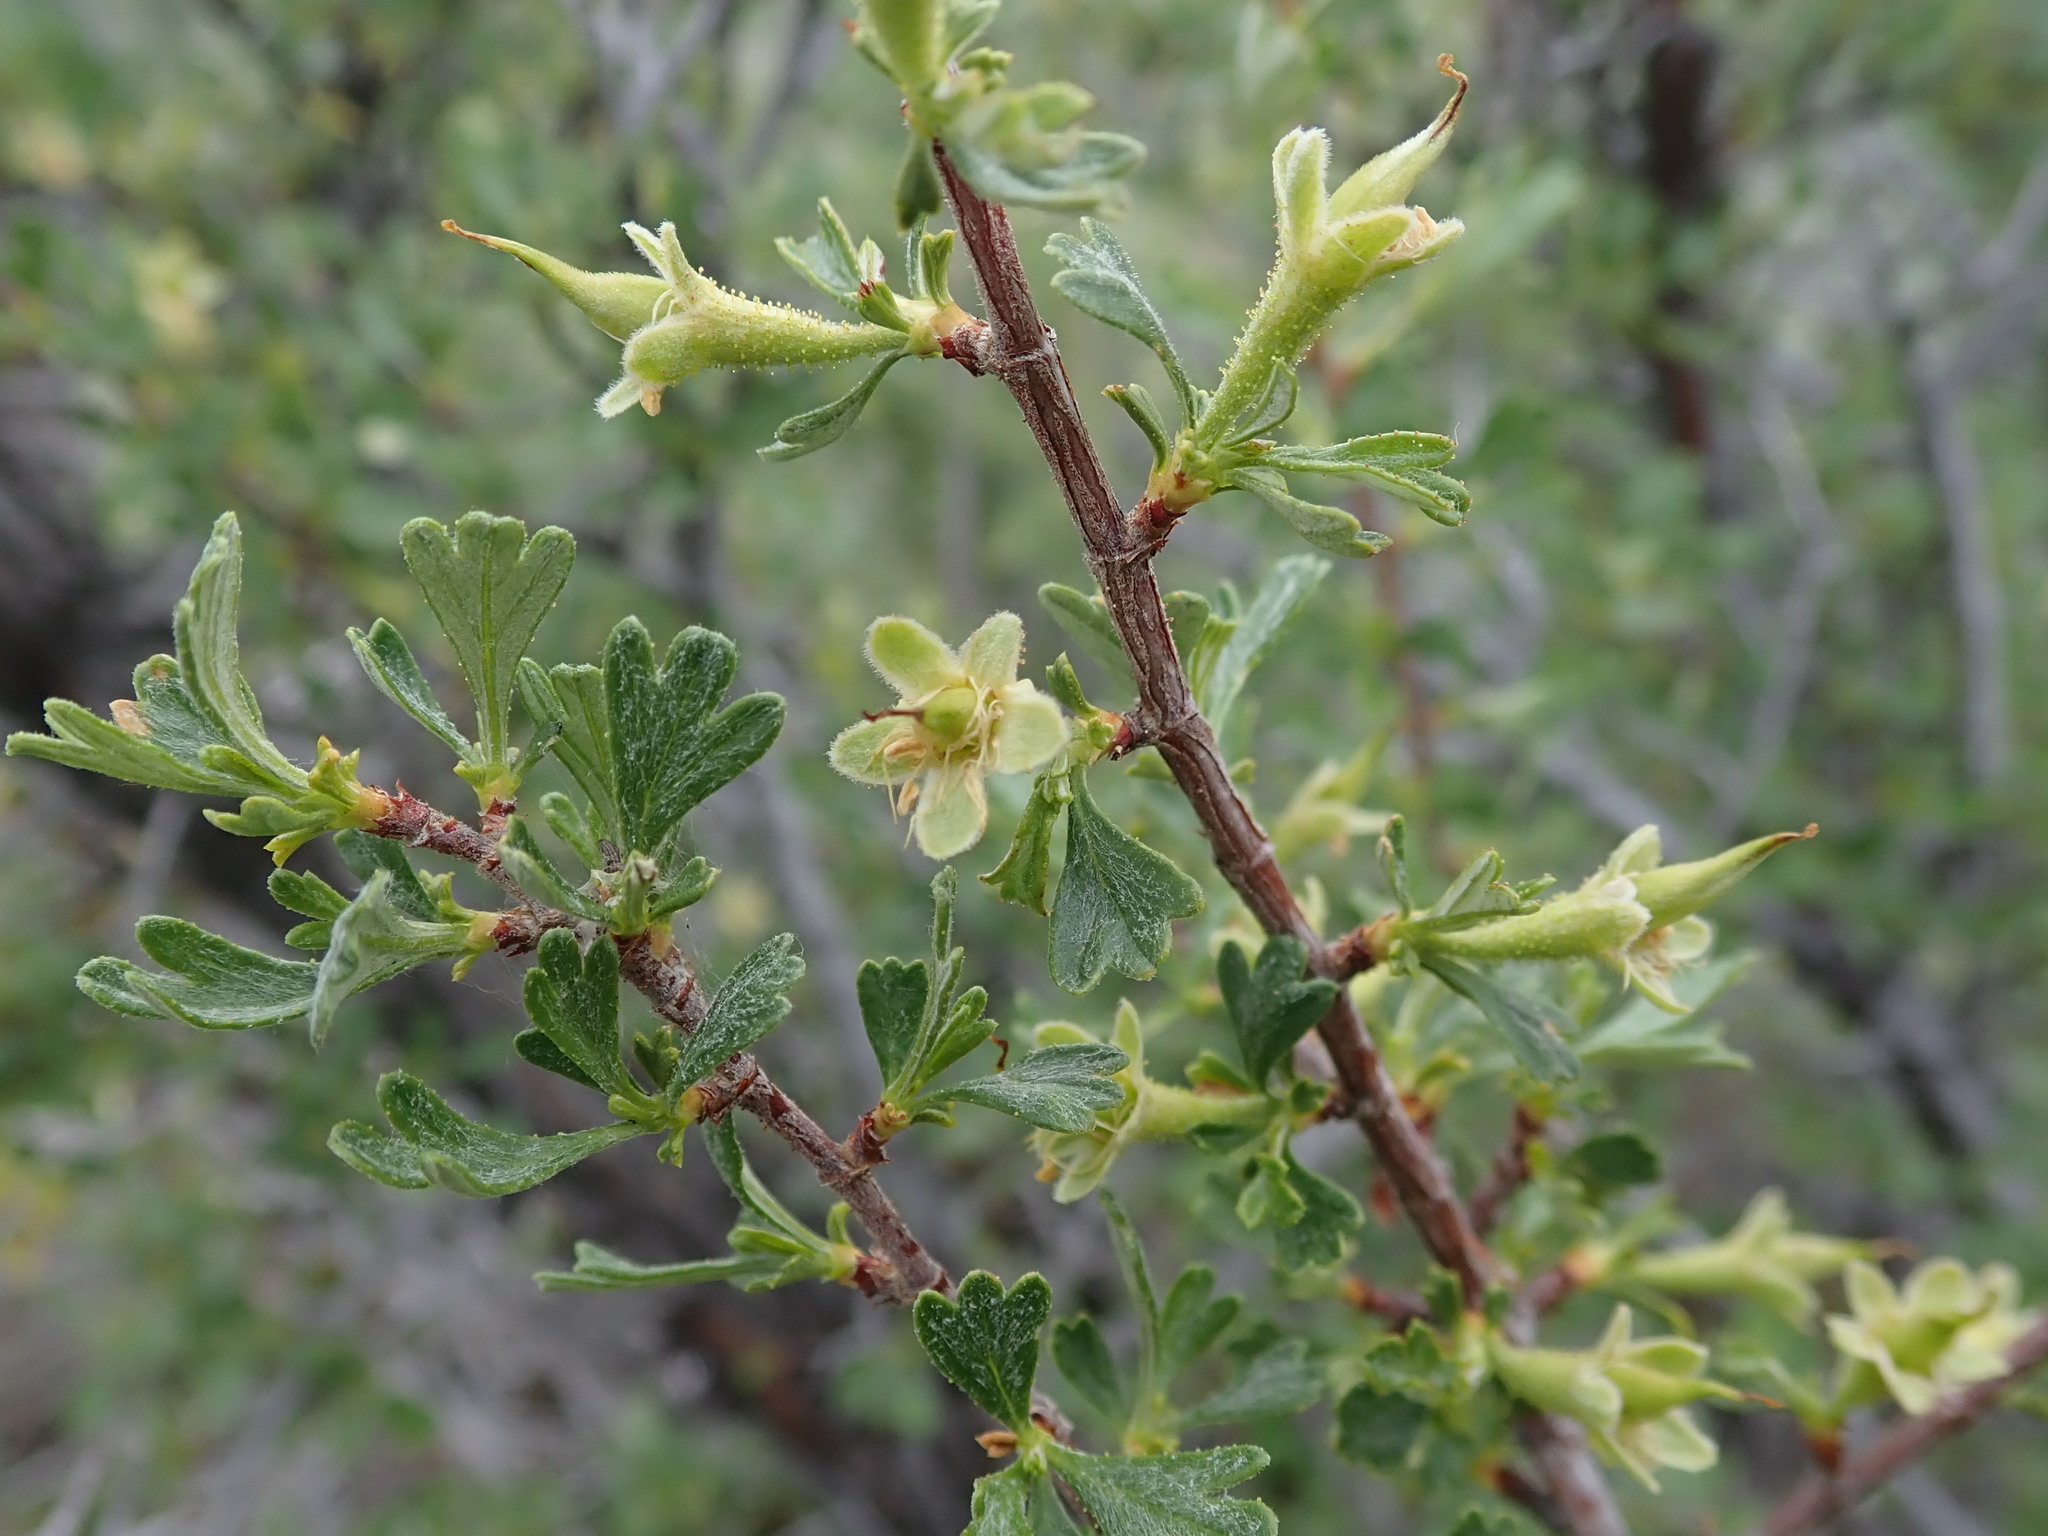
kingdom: Plantae
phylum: Tracheophyta
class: Magnoliopsida
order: Rosales
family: Rosaceae
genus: Purshia
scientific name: Purshia tridentata
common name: Antelope bitterbrush
